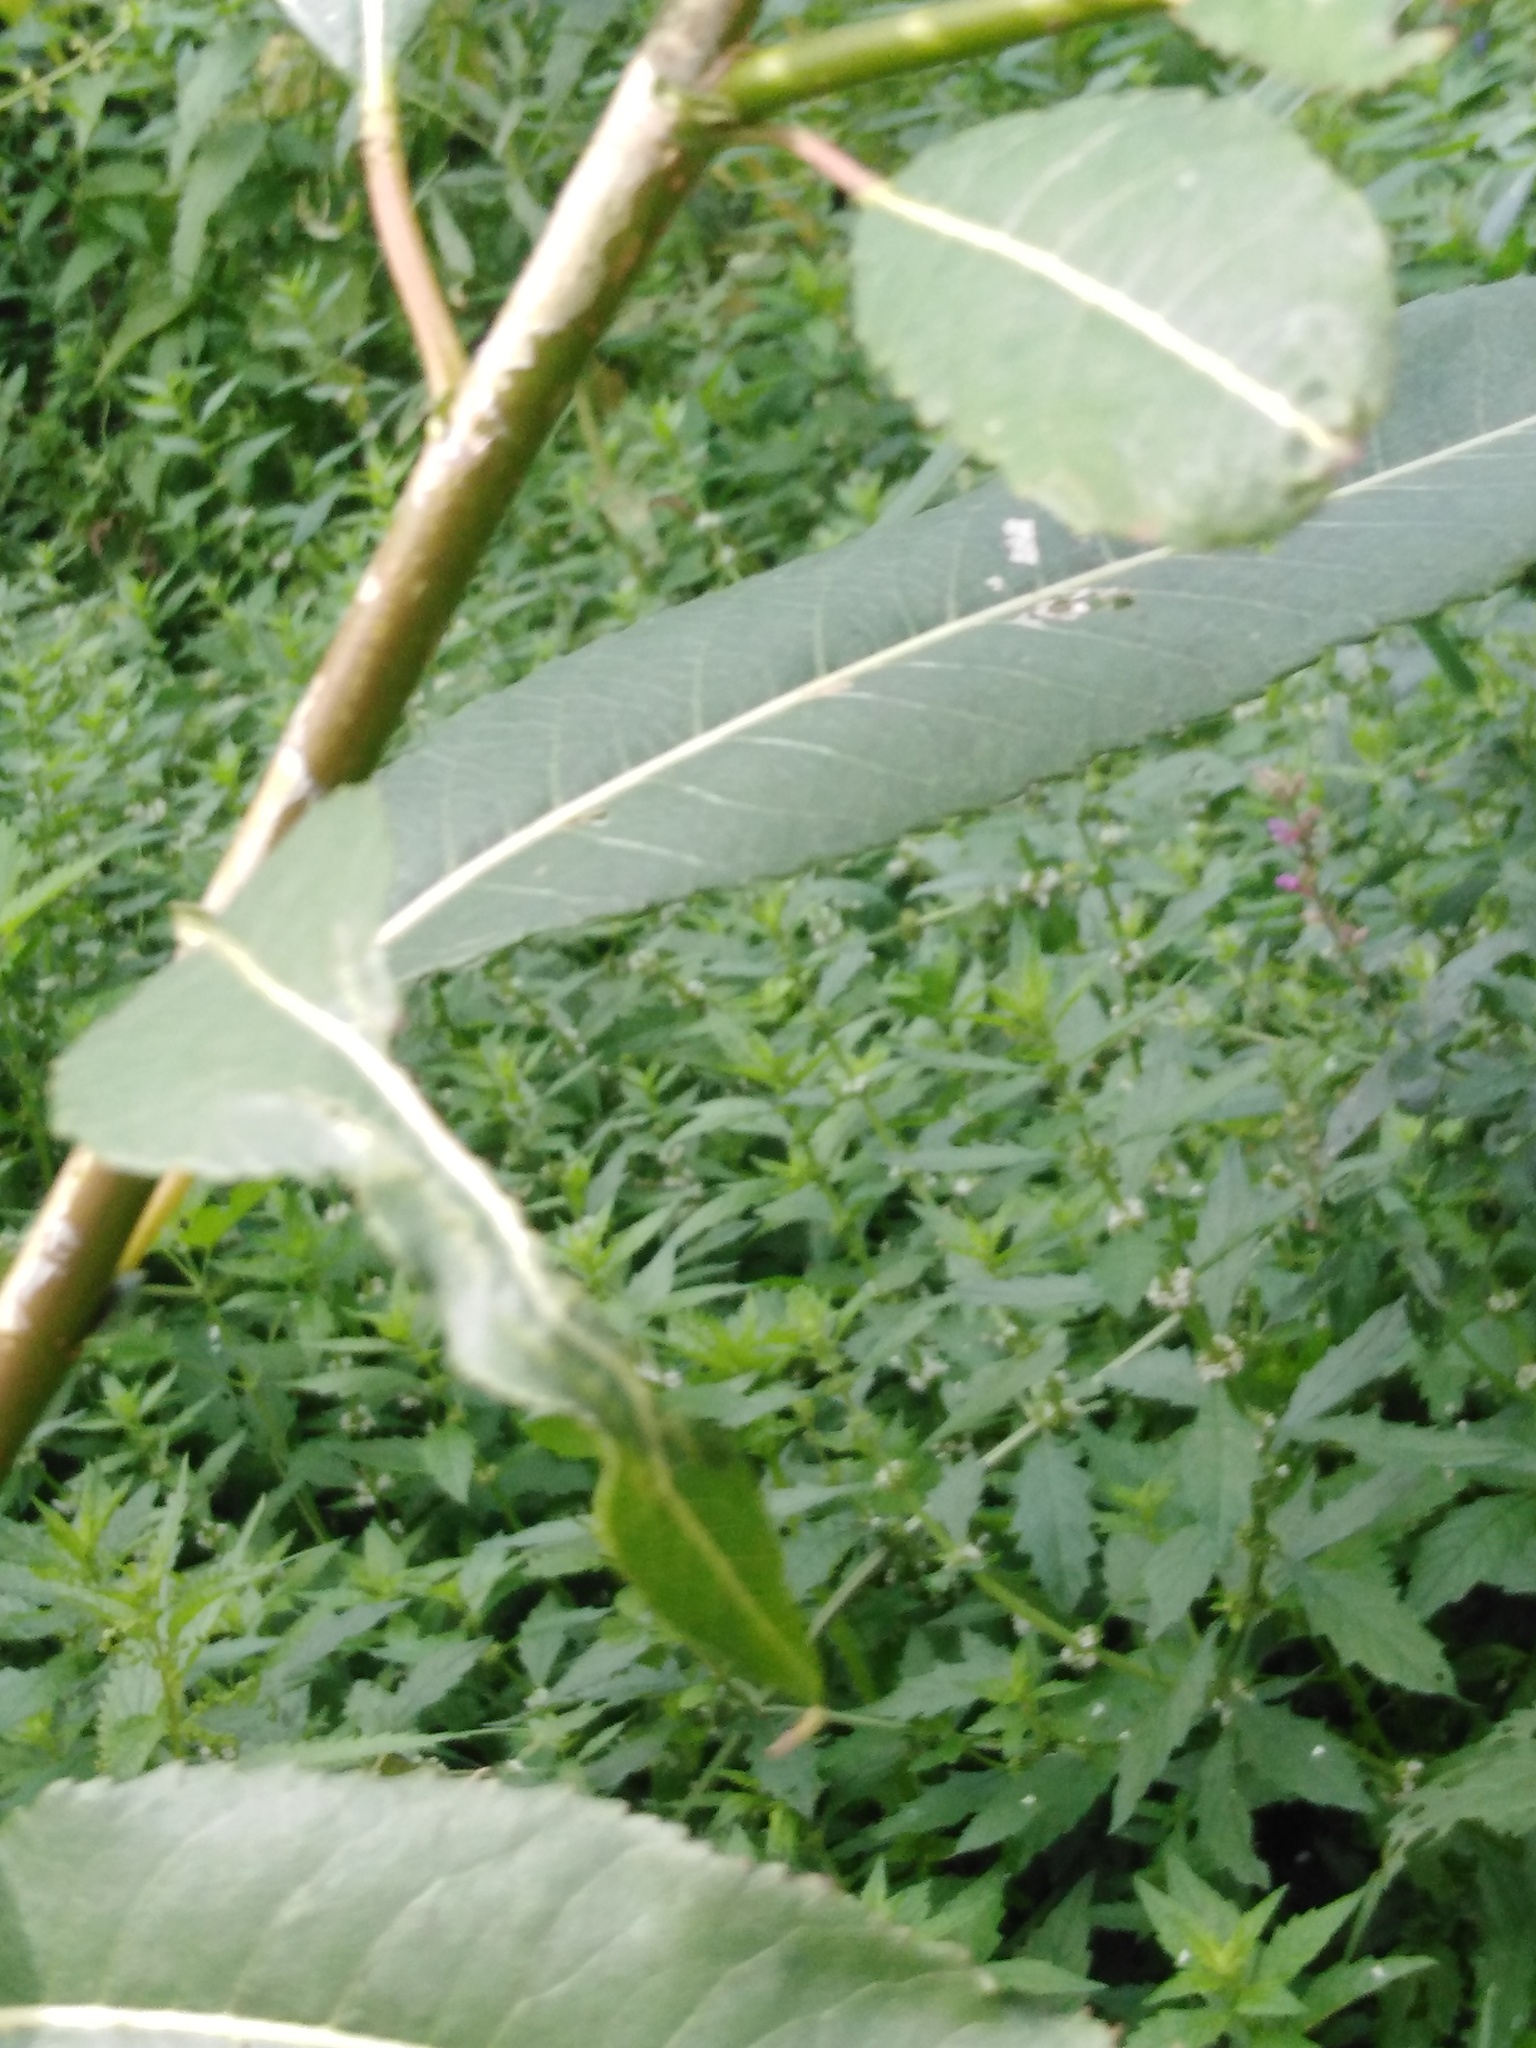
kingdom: Plantae
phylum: Tracheophyta
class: Magnoliopsida
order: Malpighiales
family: Salicaceae
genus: Salix
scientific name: Salix triandra
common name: Almond willow
